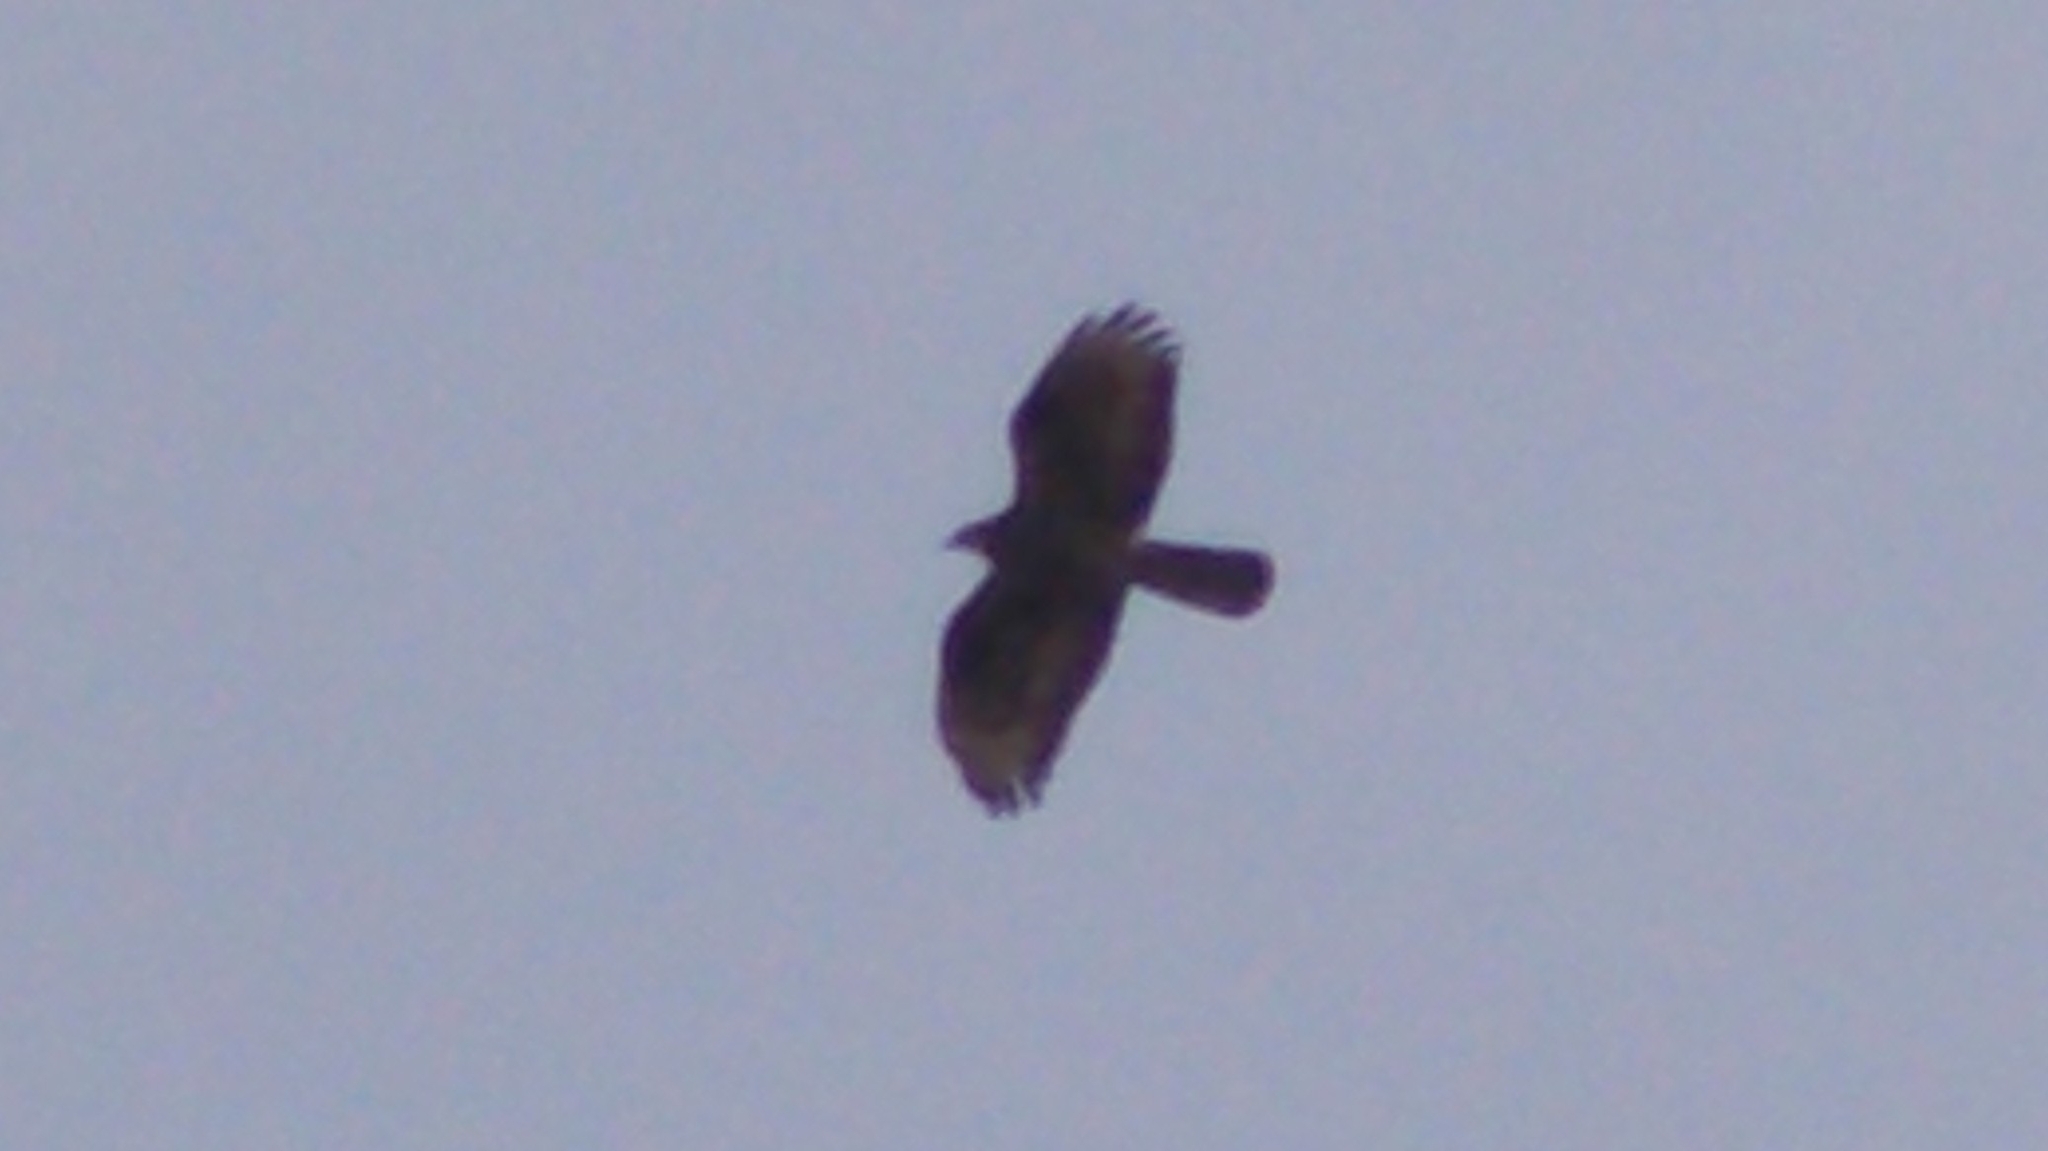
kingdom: Animalia
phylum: Chordata
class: Aves
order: Accipitriformes
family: Accipitridae
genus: Pernis
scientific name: Pernis apivorus
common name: European honey buzzard
